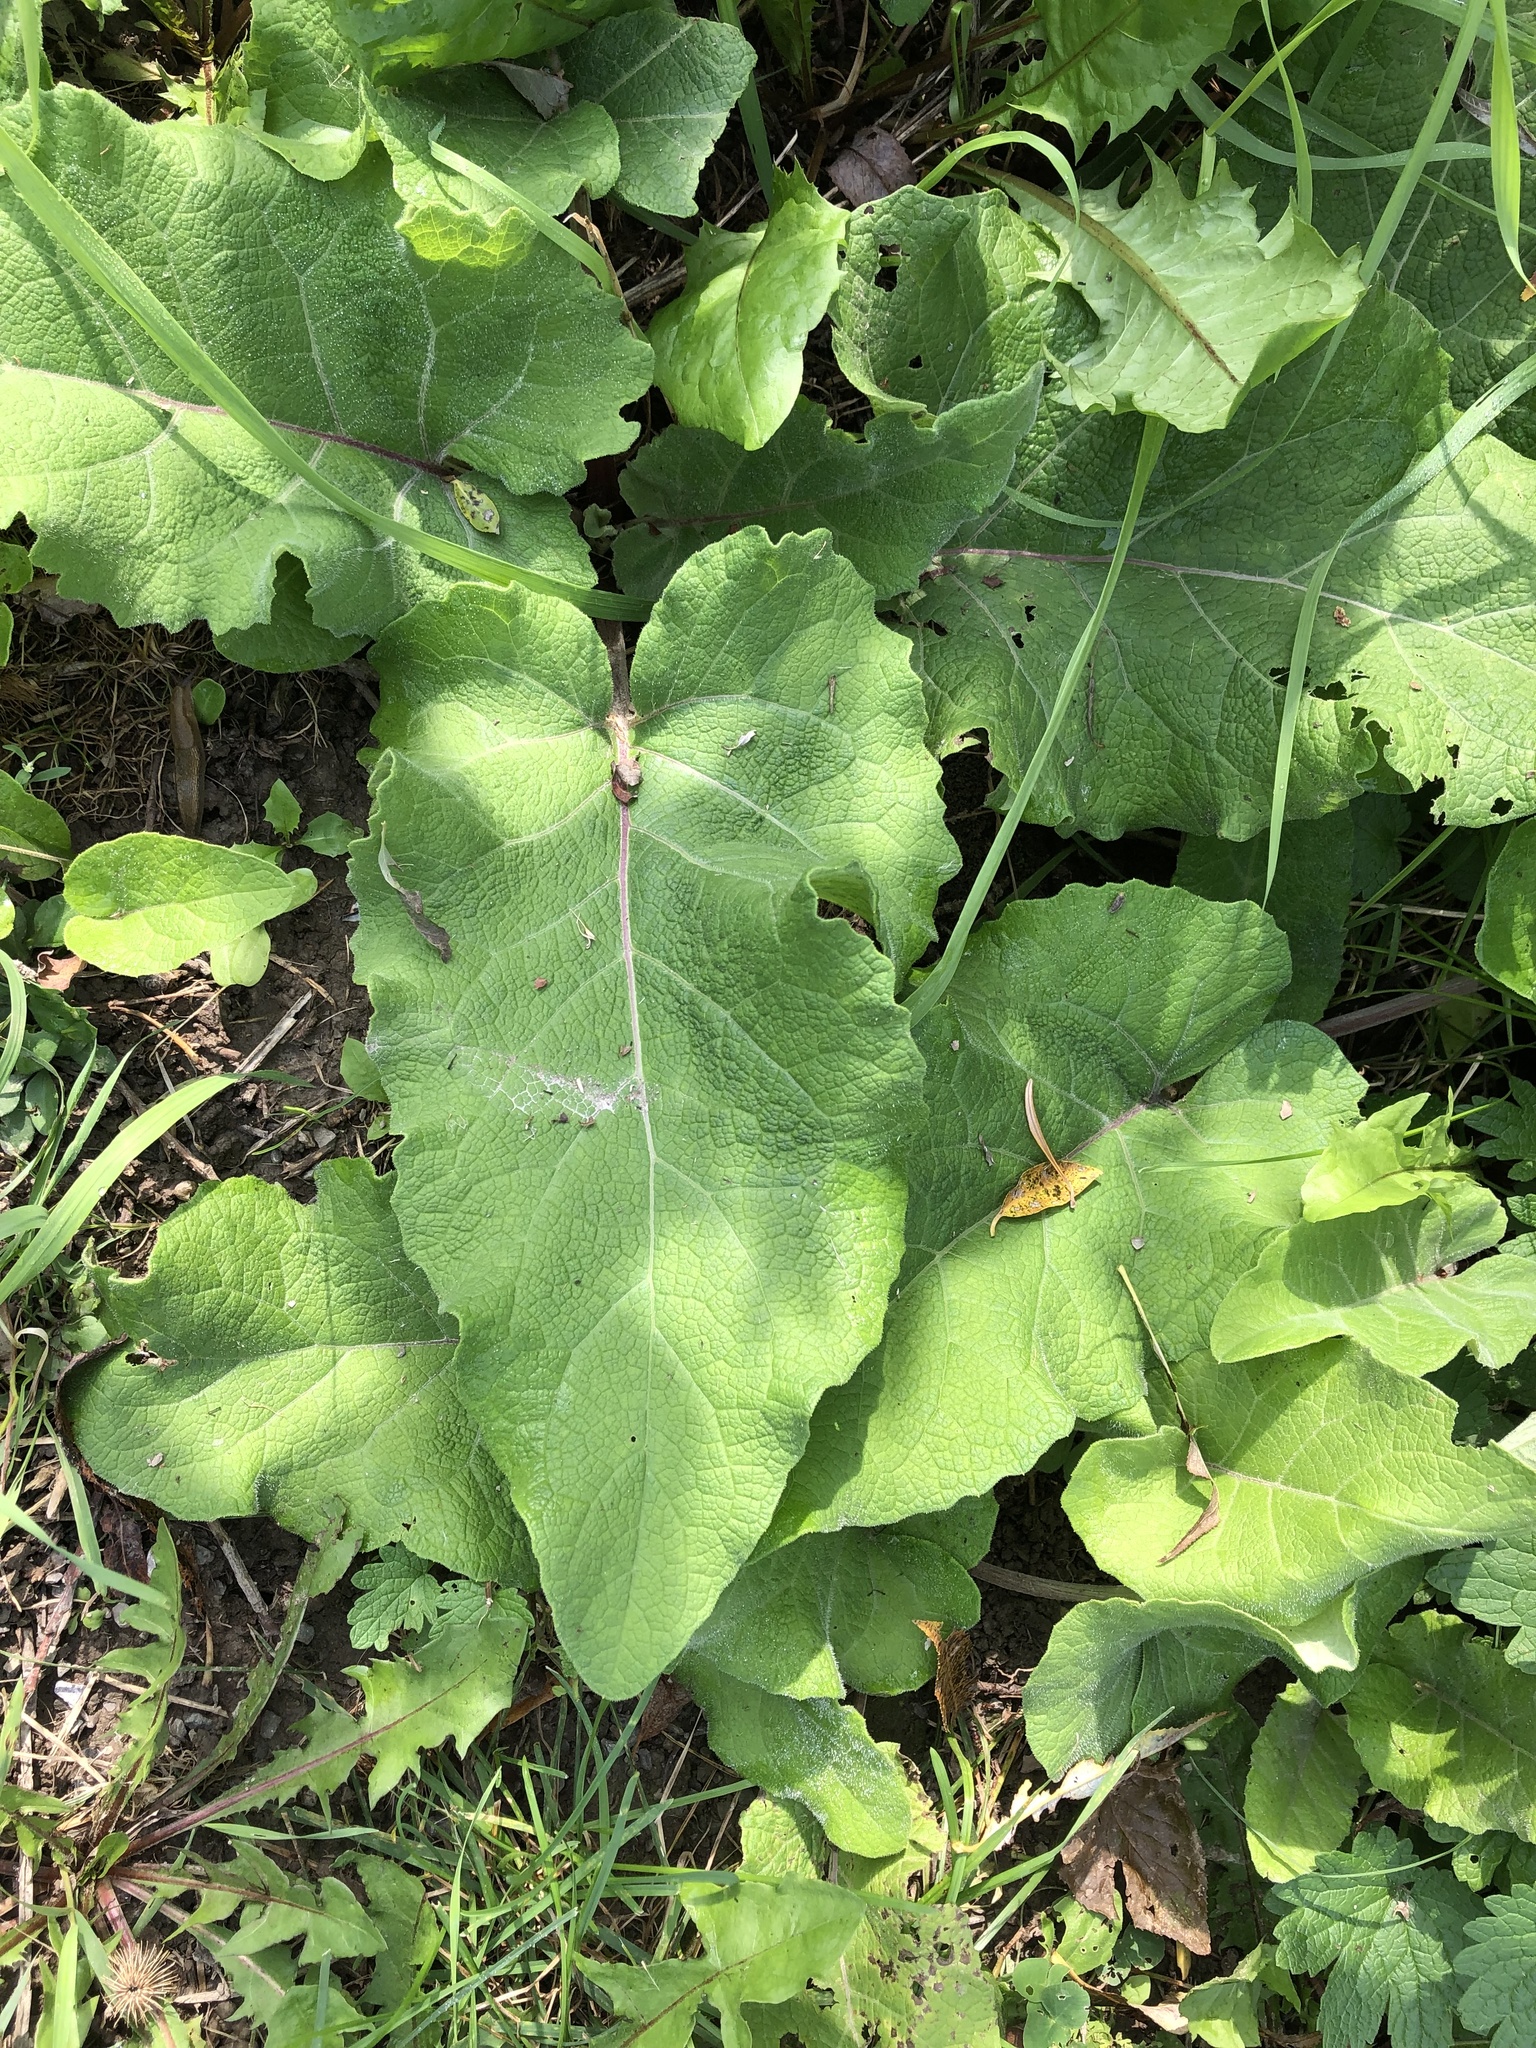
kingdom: Plantae
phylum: Tracheophyta
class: Magnoliopsida
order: Asterales
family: Asteraceae
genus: Arctium
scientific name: Arctium
